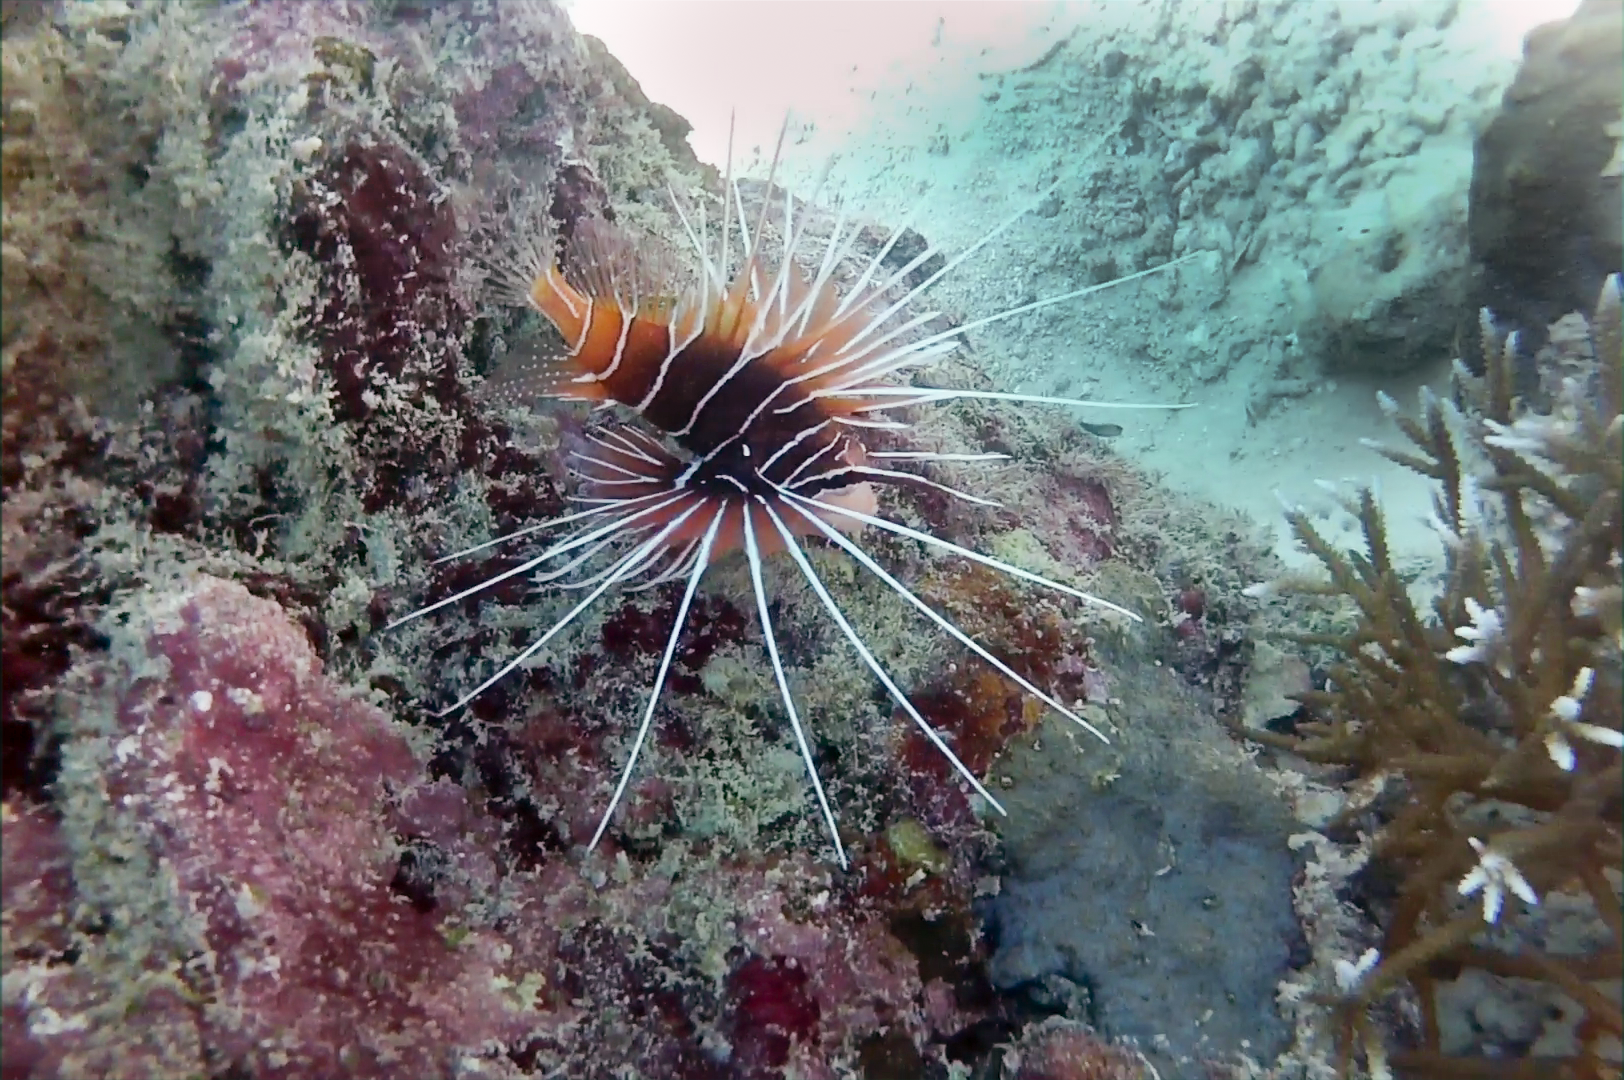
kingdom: Animalia
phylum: Chordata
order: Scorpaeniformes
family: Scorpaenidae
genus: Pterois
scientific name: Pterois radiata
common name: Radial firefish
